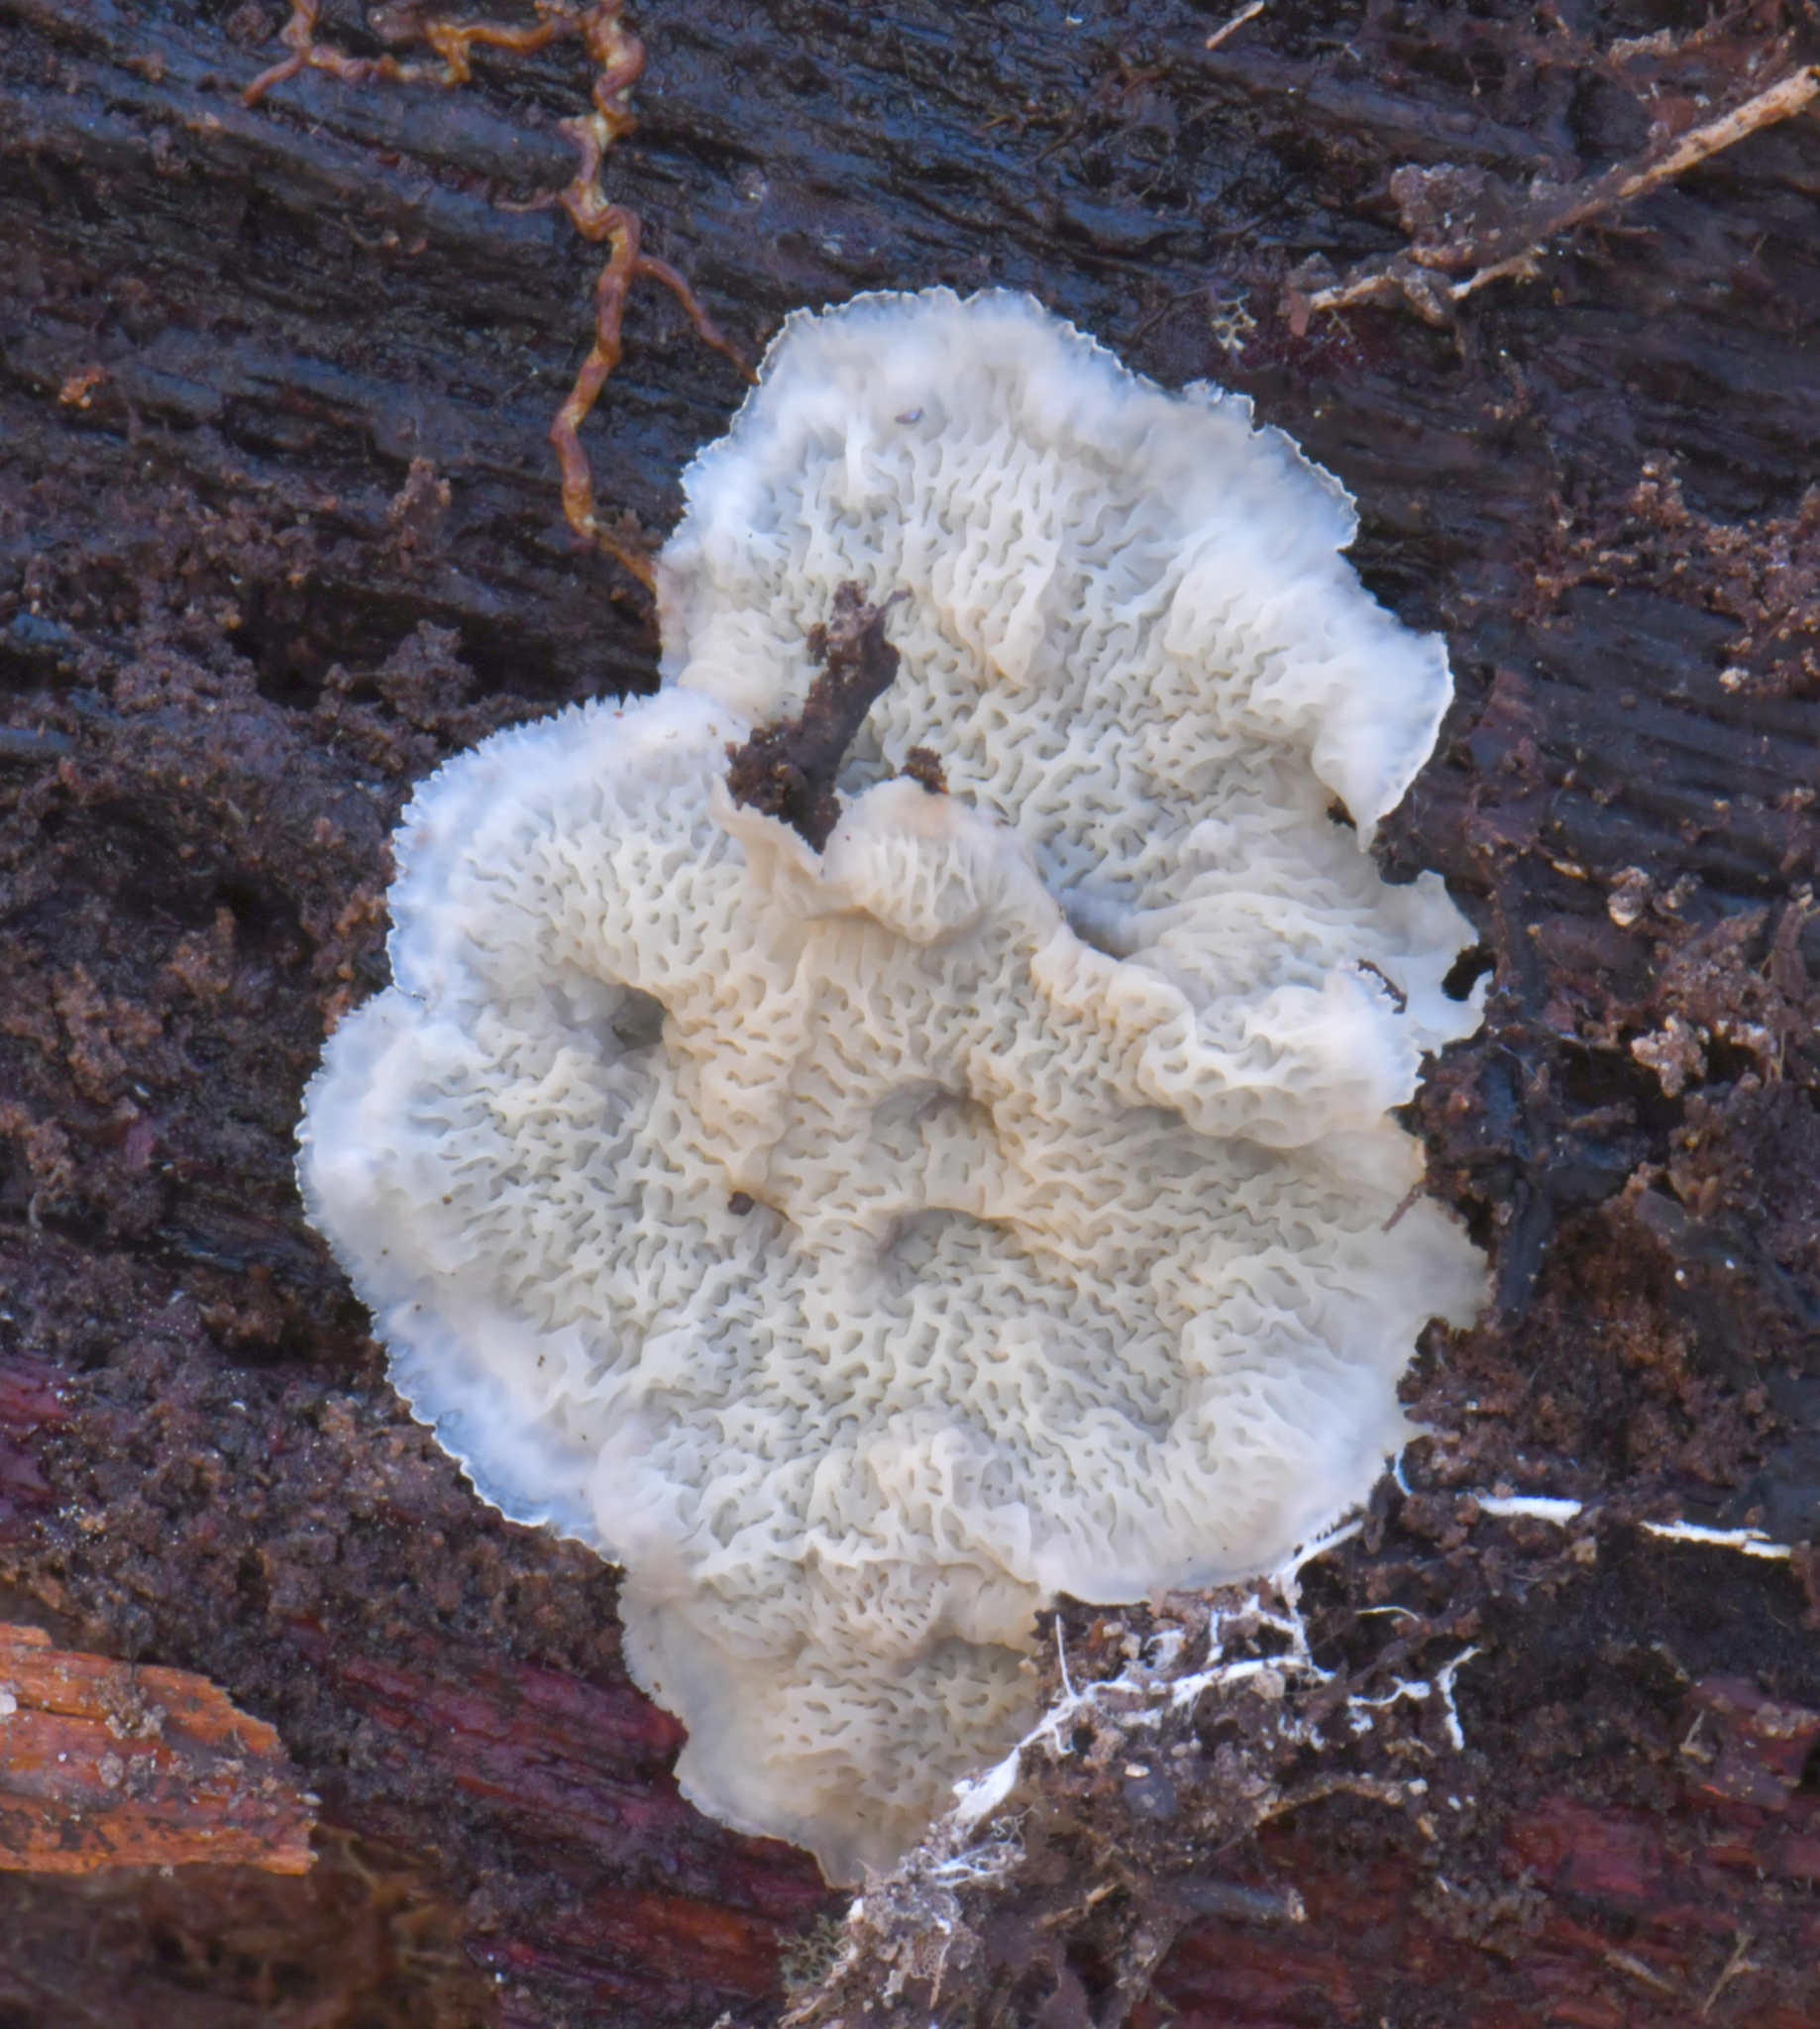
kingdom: Fungi
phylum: Basidiomycota
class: Agaricomycetes
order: Polyporales
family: Meruliaceae
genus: Phlebia
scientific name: Phlebia tremellosa
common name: Jelly rot
